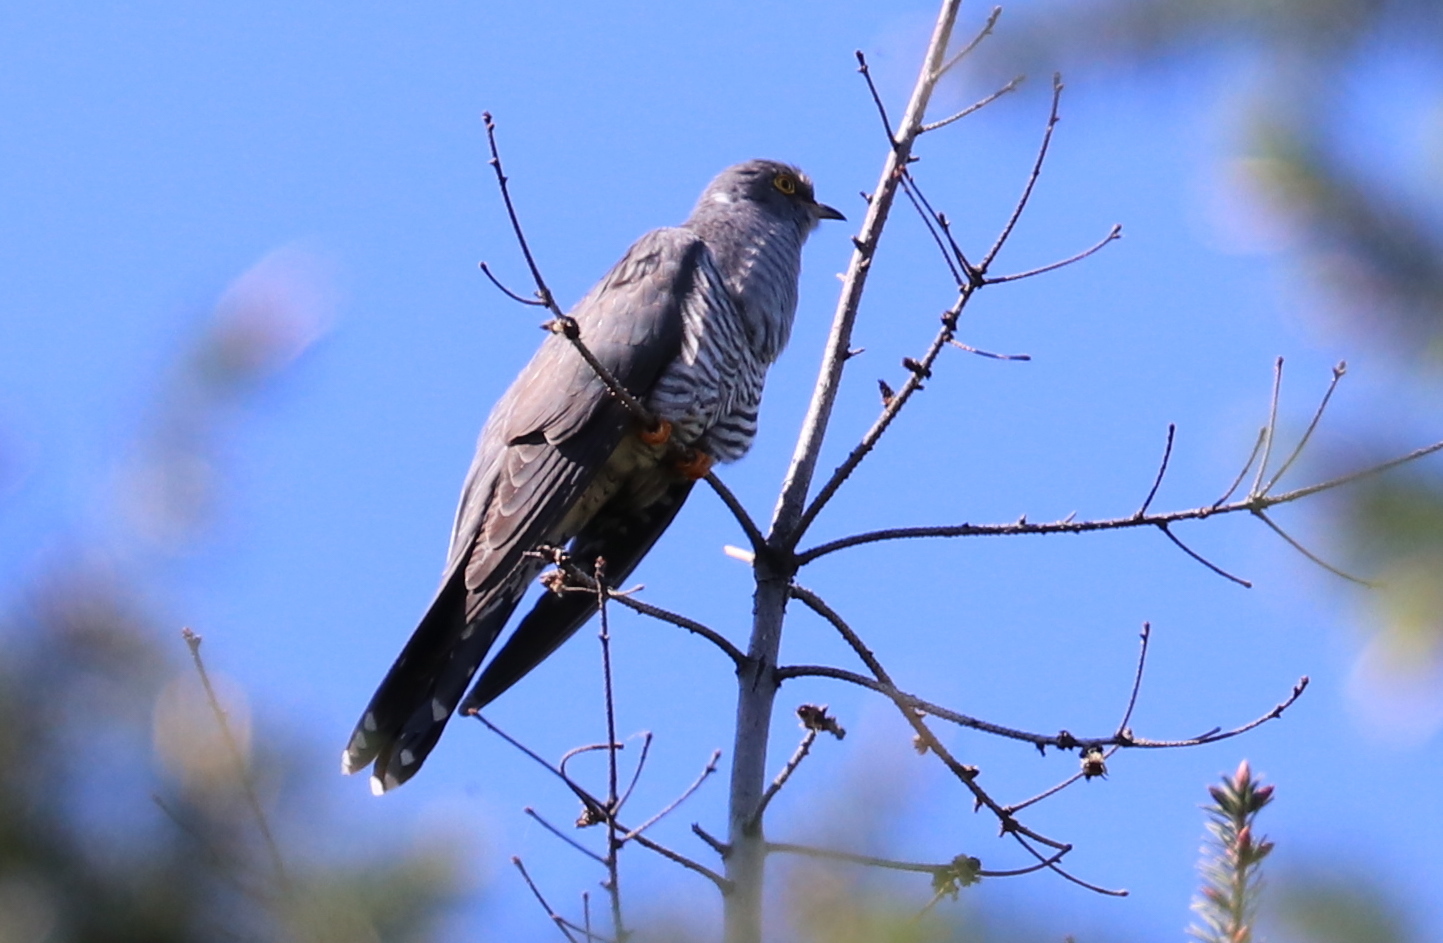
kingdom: Animalia
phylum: Chordata
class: Aves
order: Cuculiformes
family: Cuculidae
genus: Cuculus
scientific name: Cuculus canorus
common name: Common cuckoo
